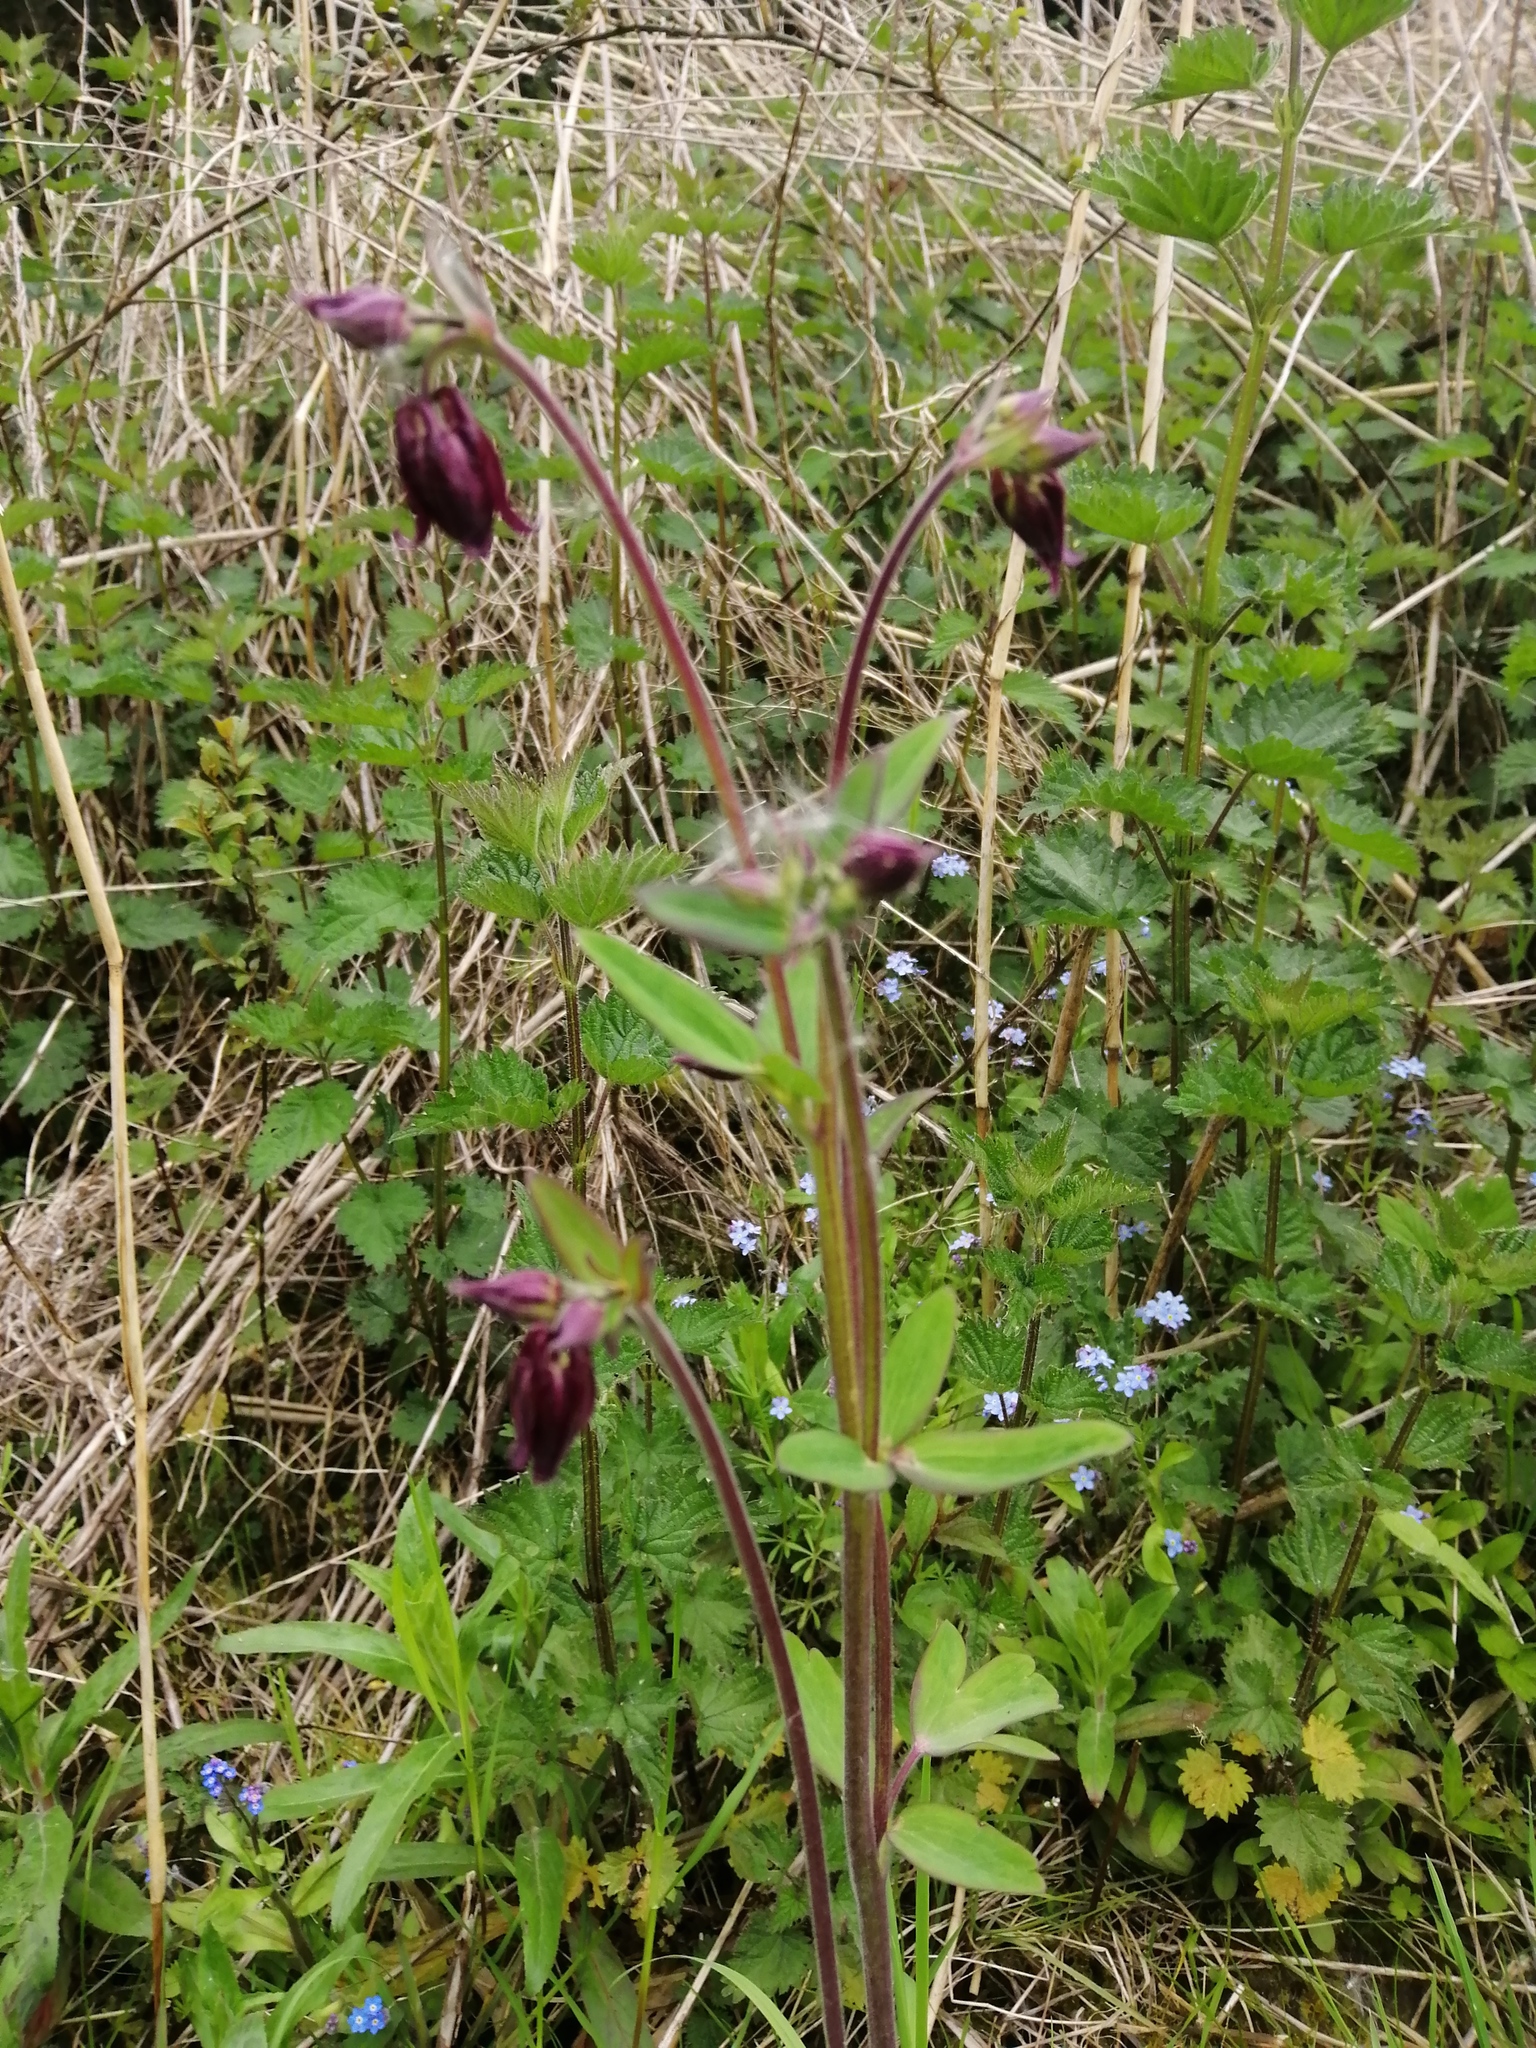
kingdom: Plantae
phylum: Tracheophyta
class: Magnoliopsida
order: Ranunculales
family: Ranunculaceae
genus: Aquilegia
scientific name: Aquilegia vulgaris
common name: Columbine
